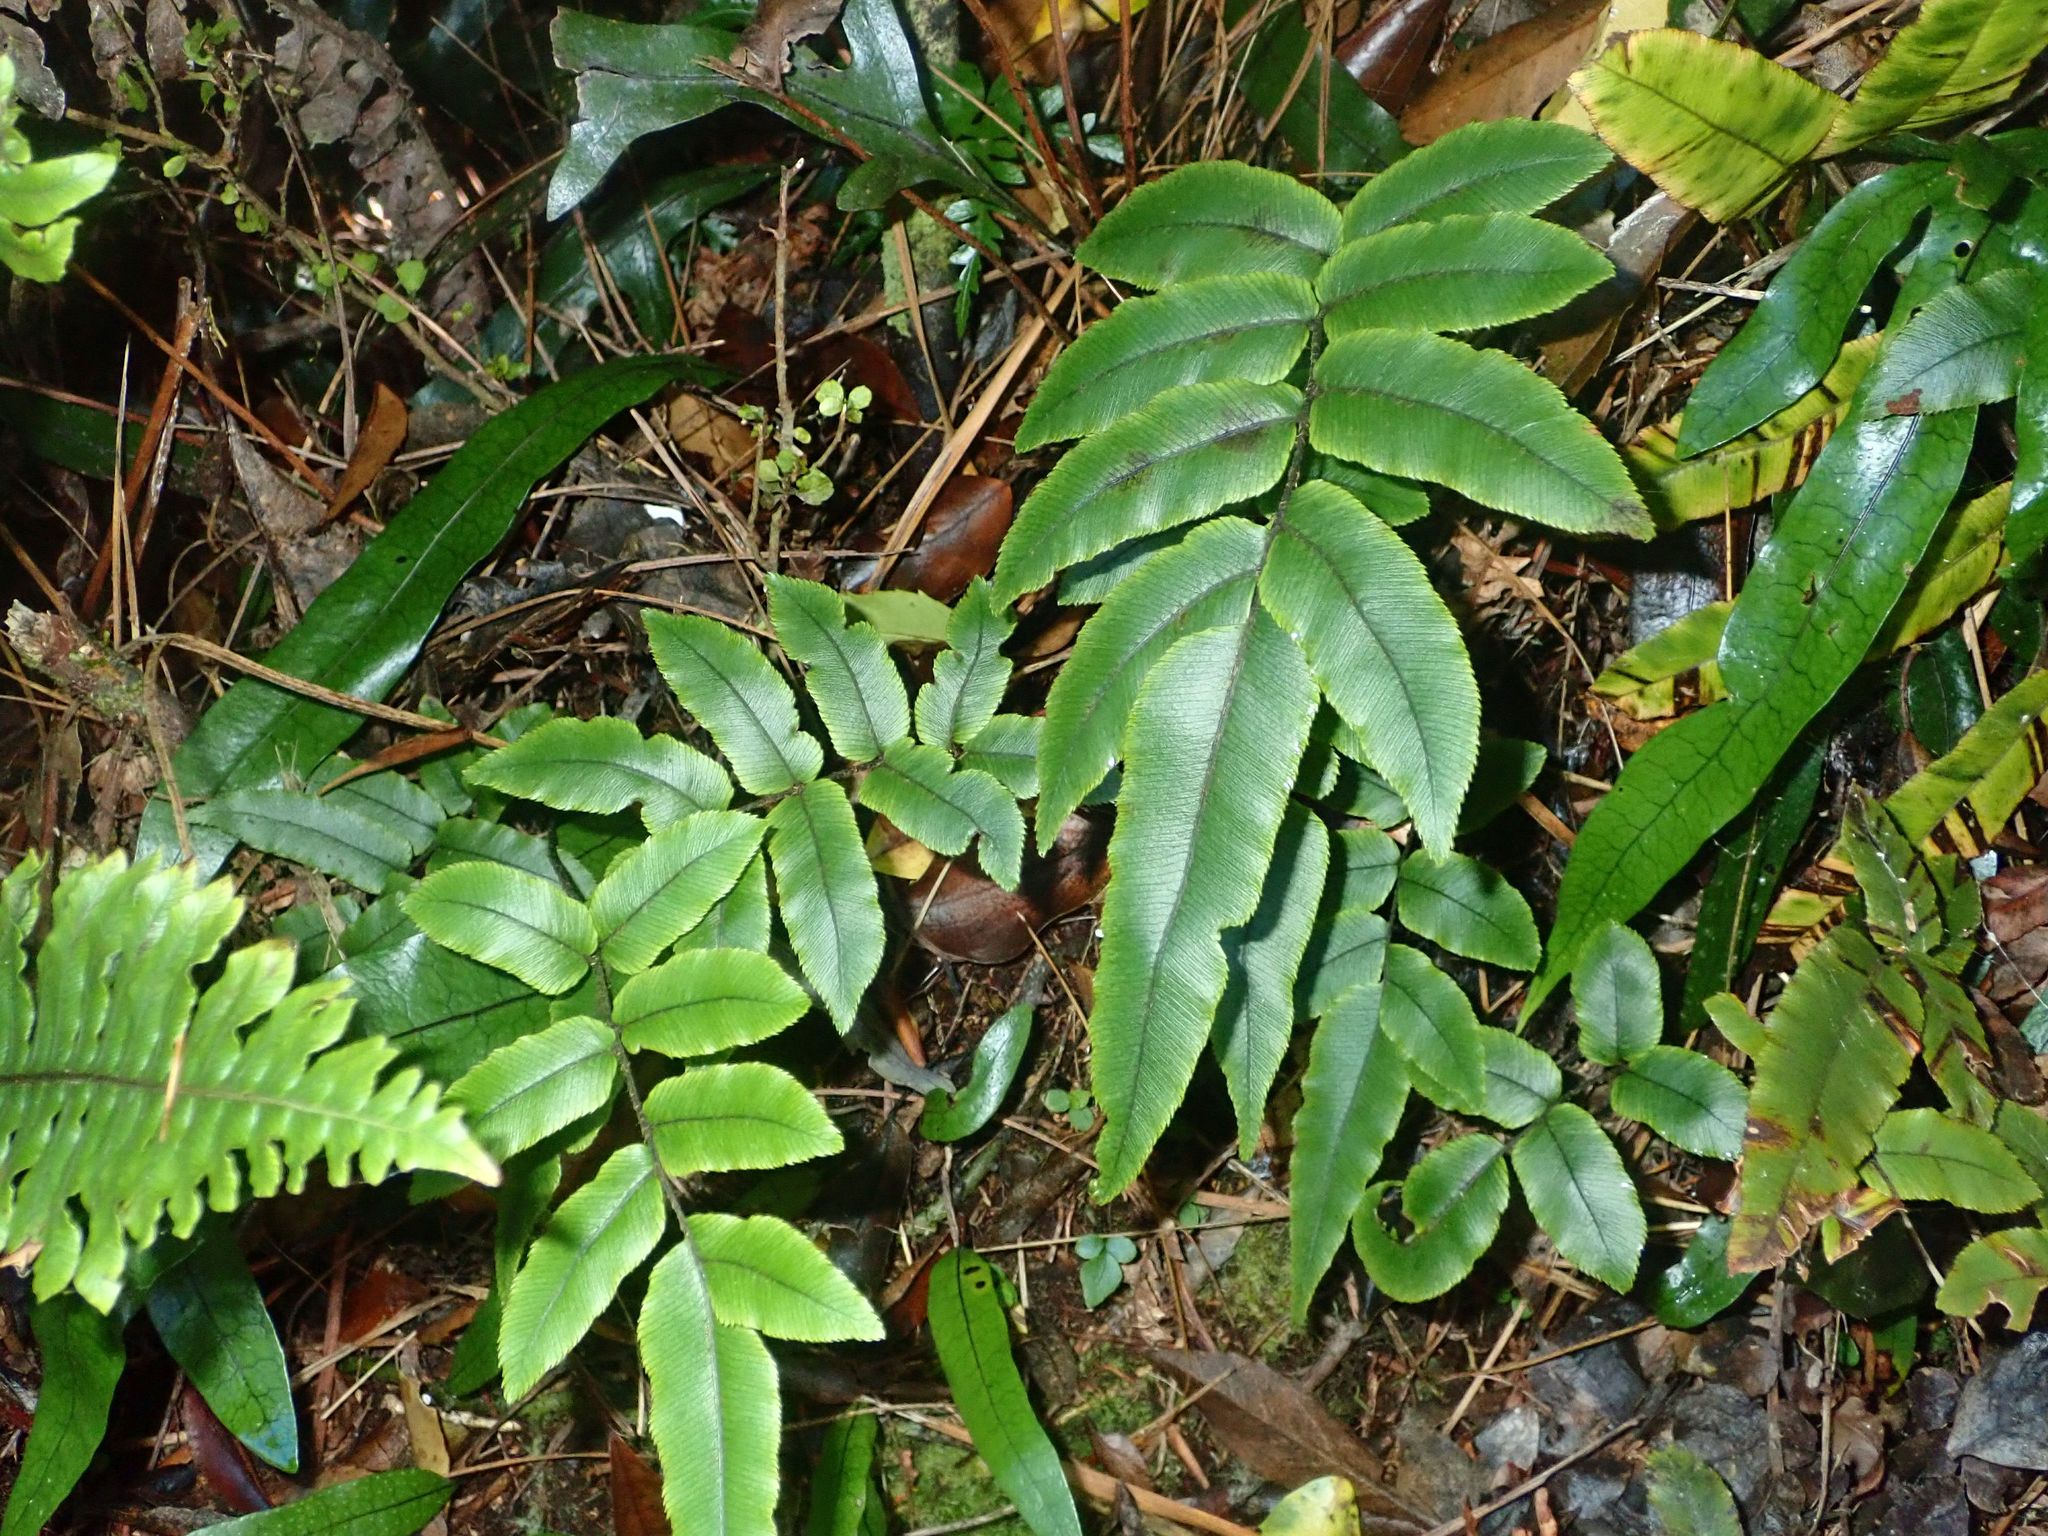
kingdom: Plantae
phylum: Tracheophyta
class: Polypodiopsida
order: Polypodiales
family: Blechnaceae
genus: Parablechnum
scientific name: Parablechnum procerum
